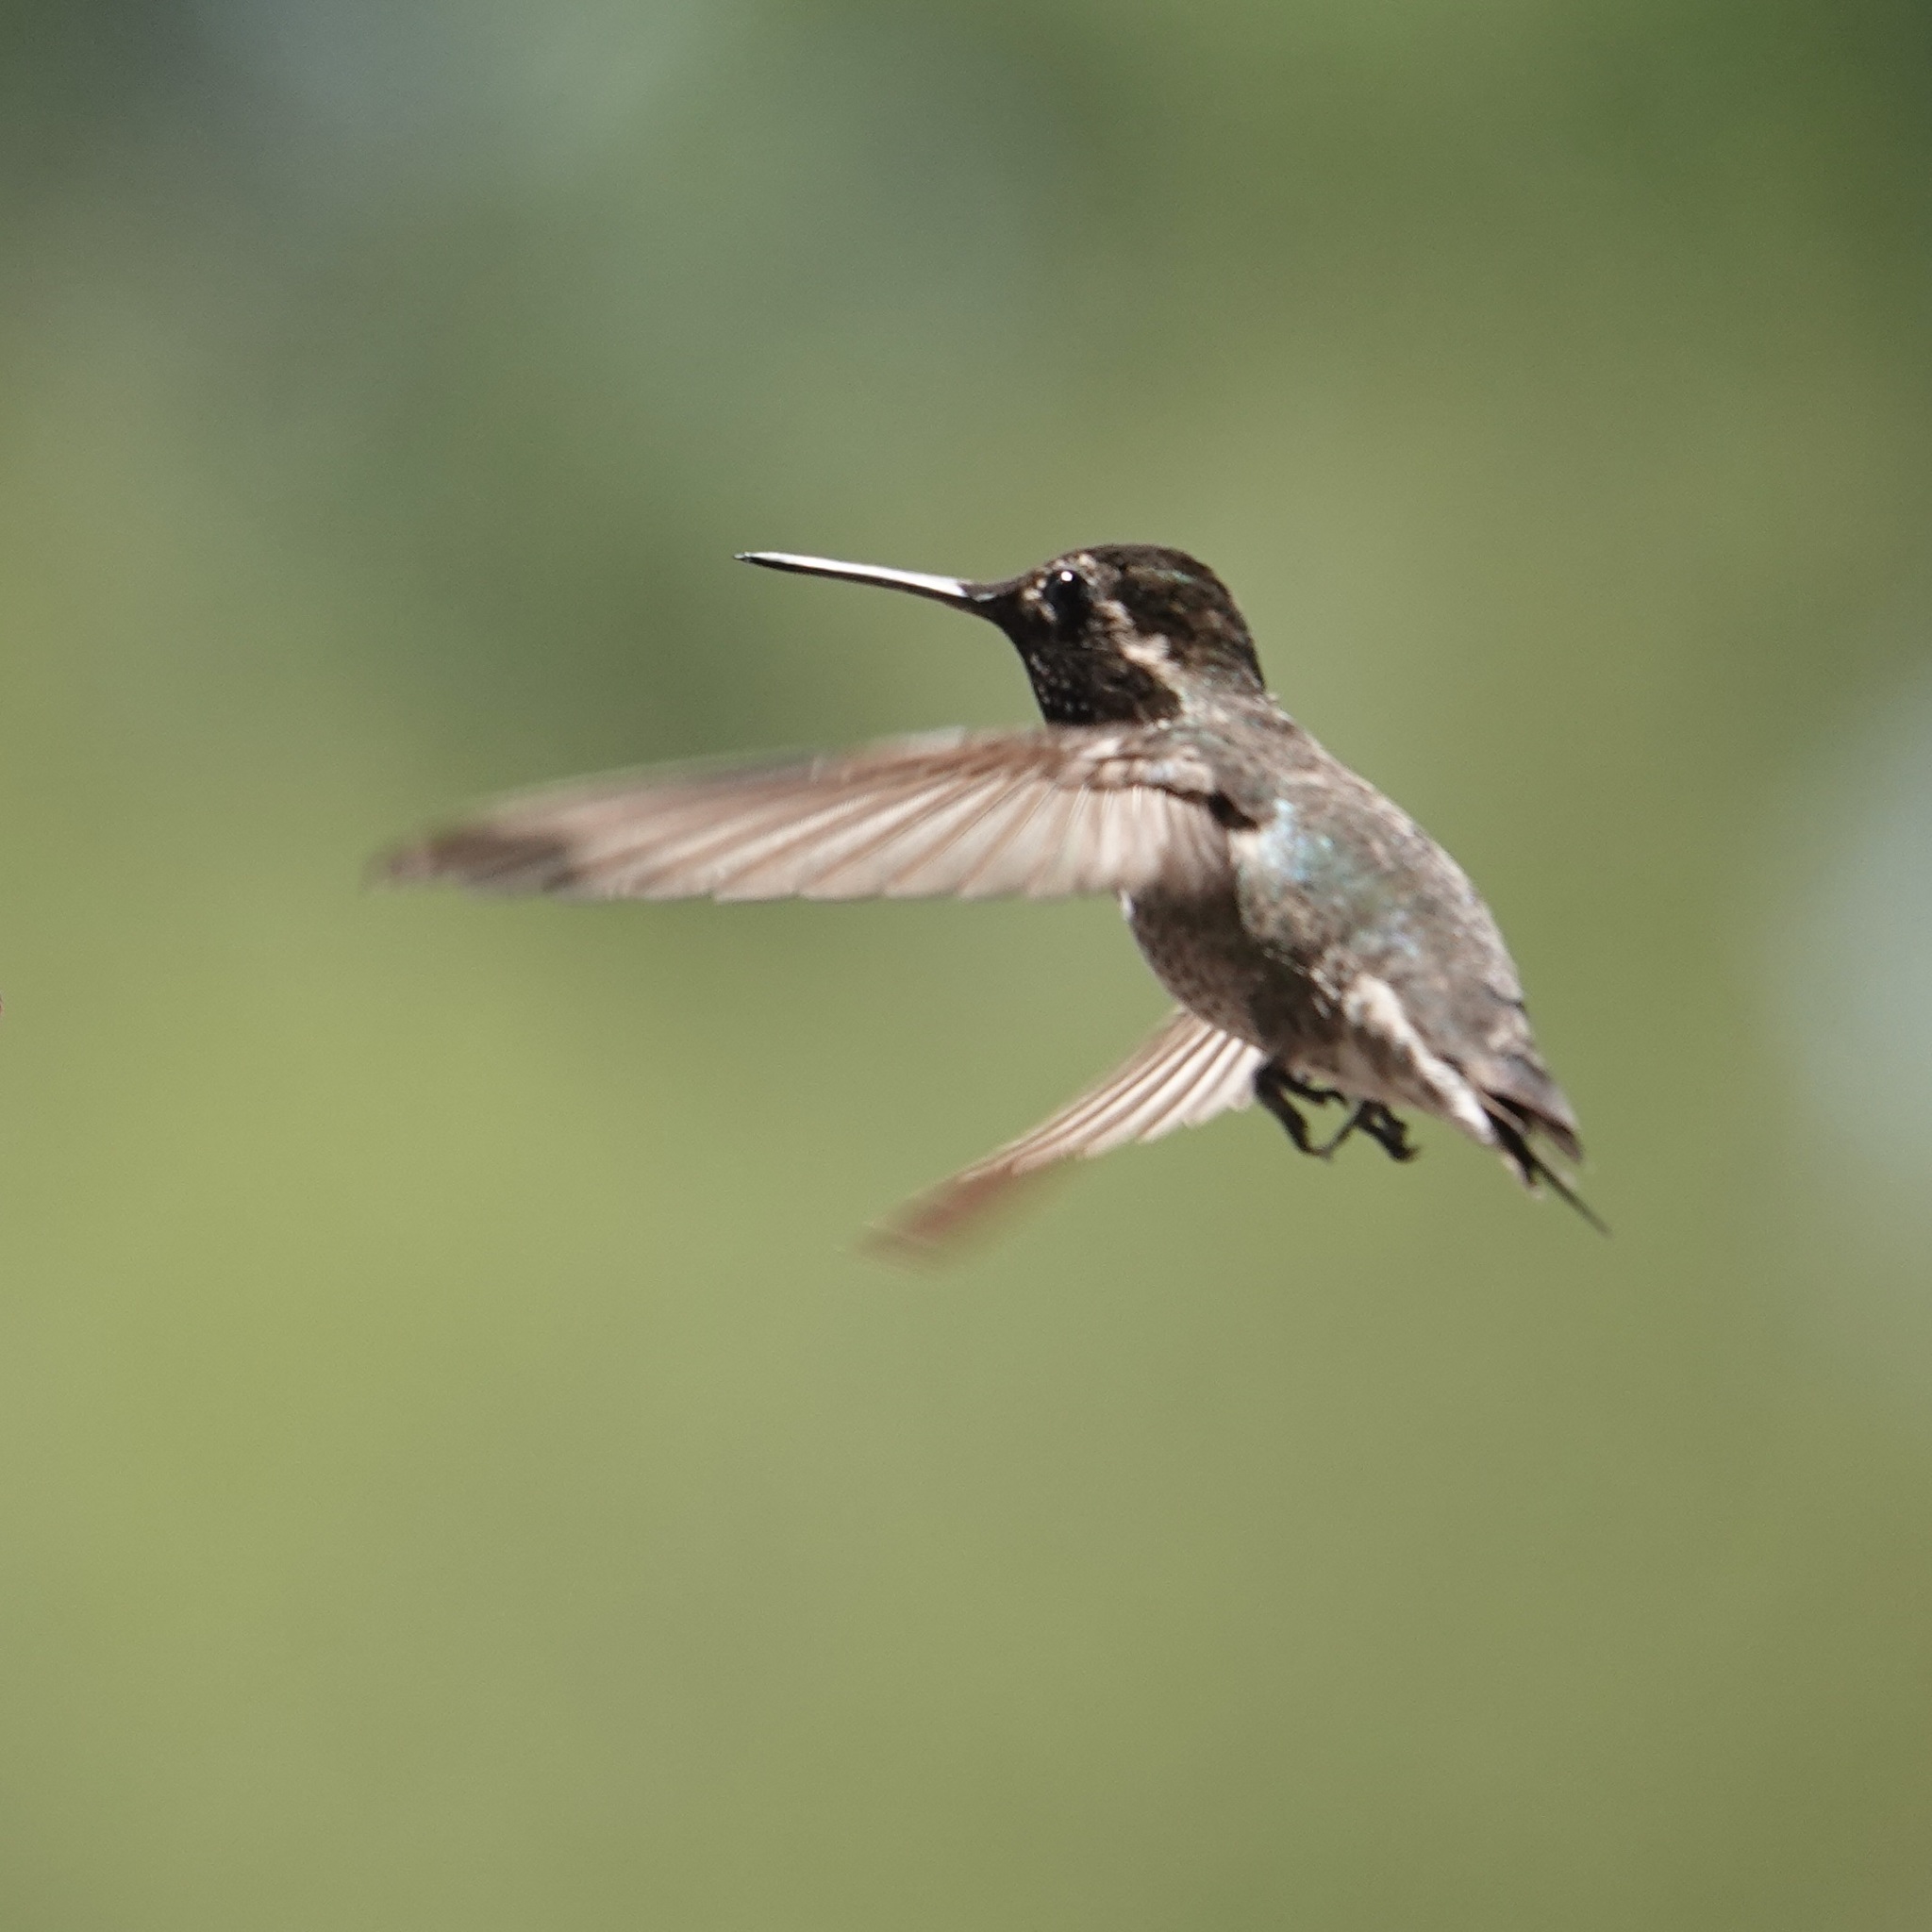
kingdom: Animalia
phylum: Chordata
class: Aves
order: Apodiformes
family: Trochilidae
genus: Calypte
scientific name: Calypte anna
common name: Anna's hummingbird
